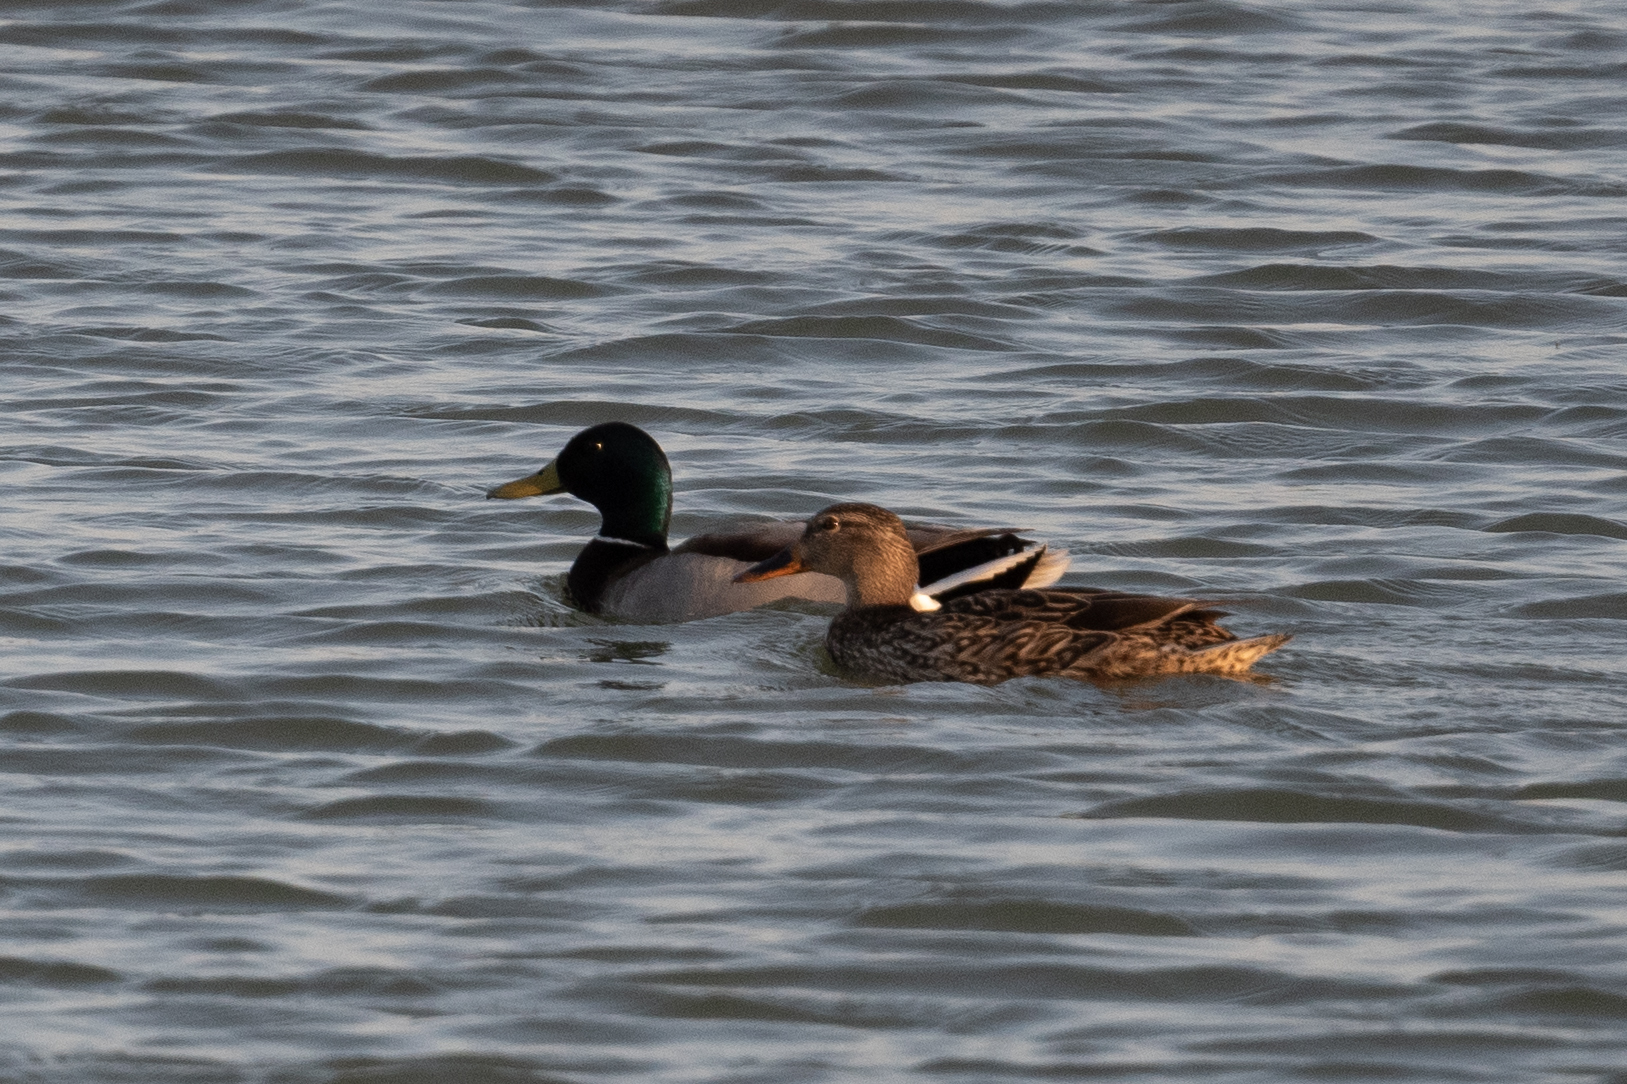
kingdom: Animalia
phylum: Chordata
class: Aves
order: Anseriformes
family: Anatidae
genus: Anas
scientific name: Anas platyrhynchos
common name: Mallard
